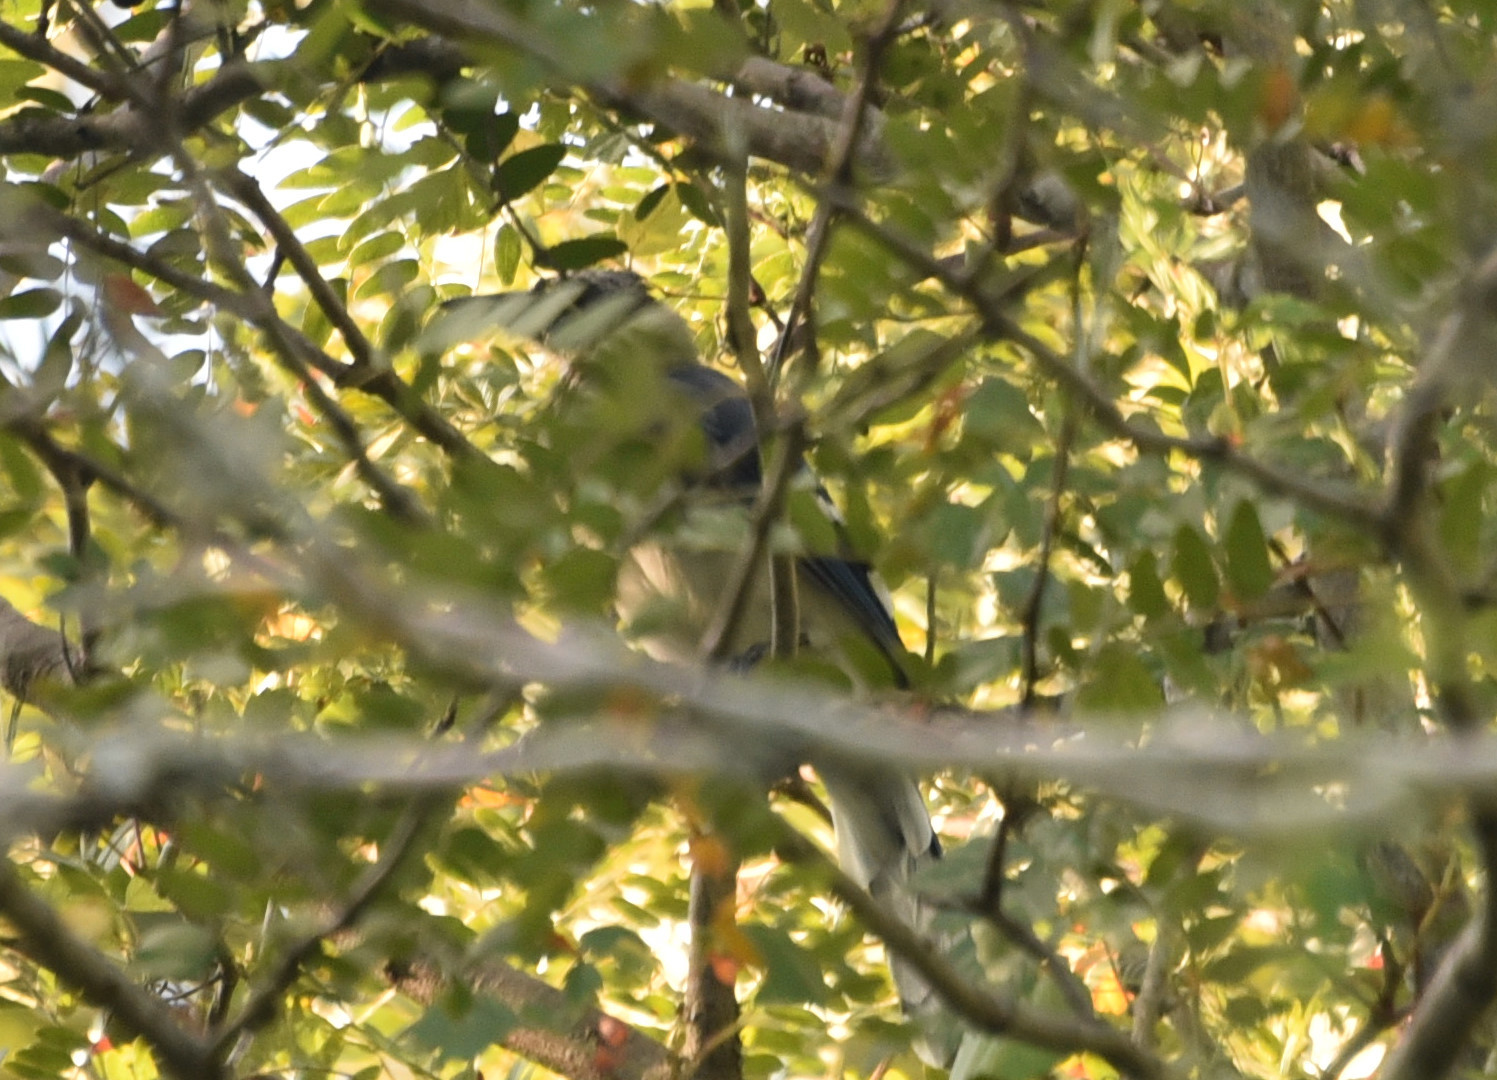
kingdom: Animalia
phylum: Chordata
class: Aves
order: Passeriformes
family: Corvidae
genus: Cyanocitta
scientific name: Cyanocitta cristata
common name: Blue jay
